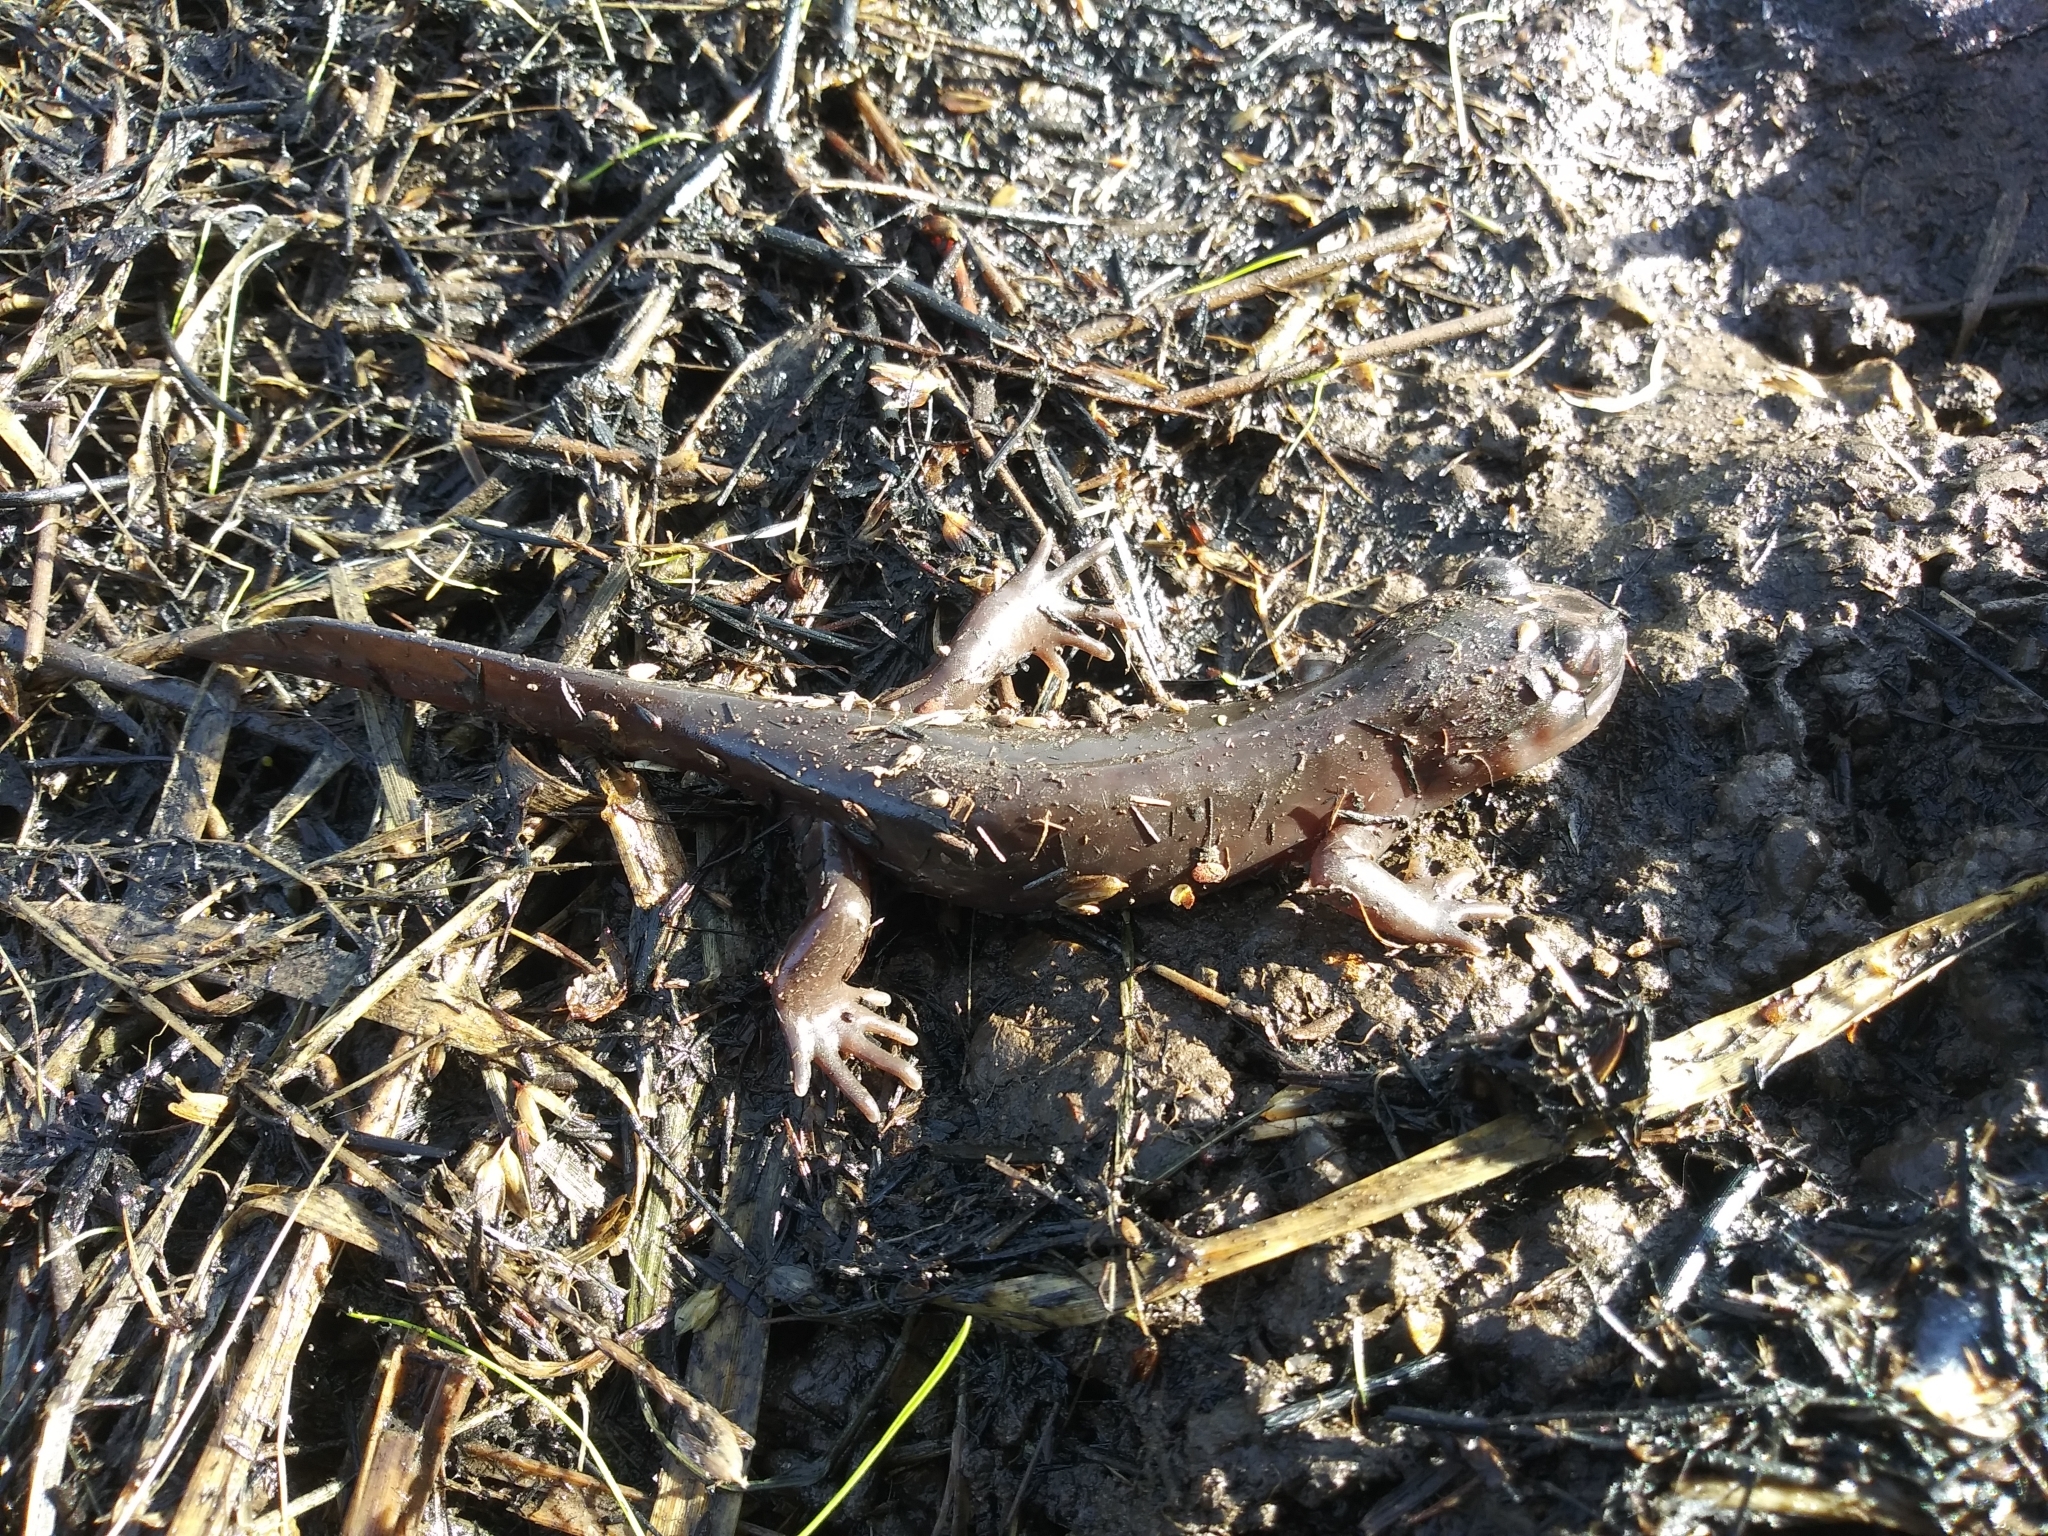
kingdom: Animalia
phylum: Chordata
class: Amphibia
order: Caudata
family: Ambystomatidae
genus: Dicamptodon
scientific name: Dicamptodon ensatus
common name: California giant salamander
